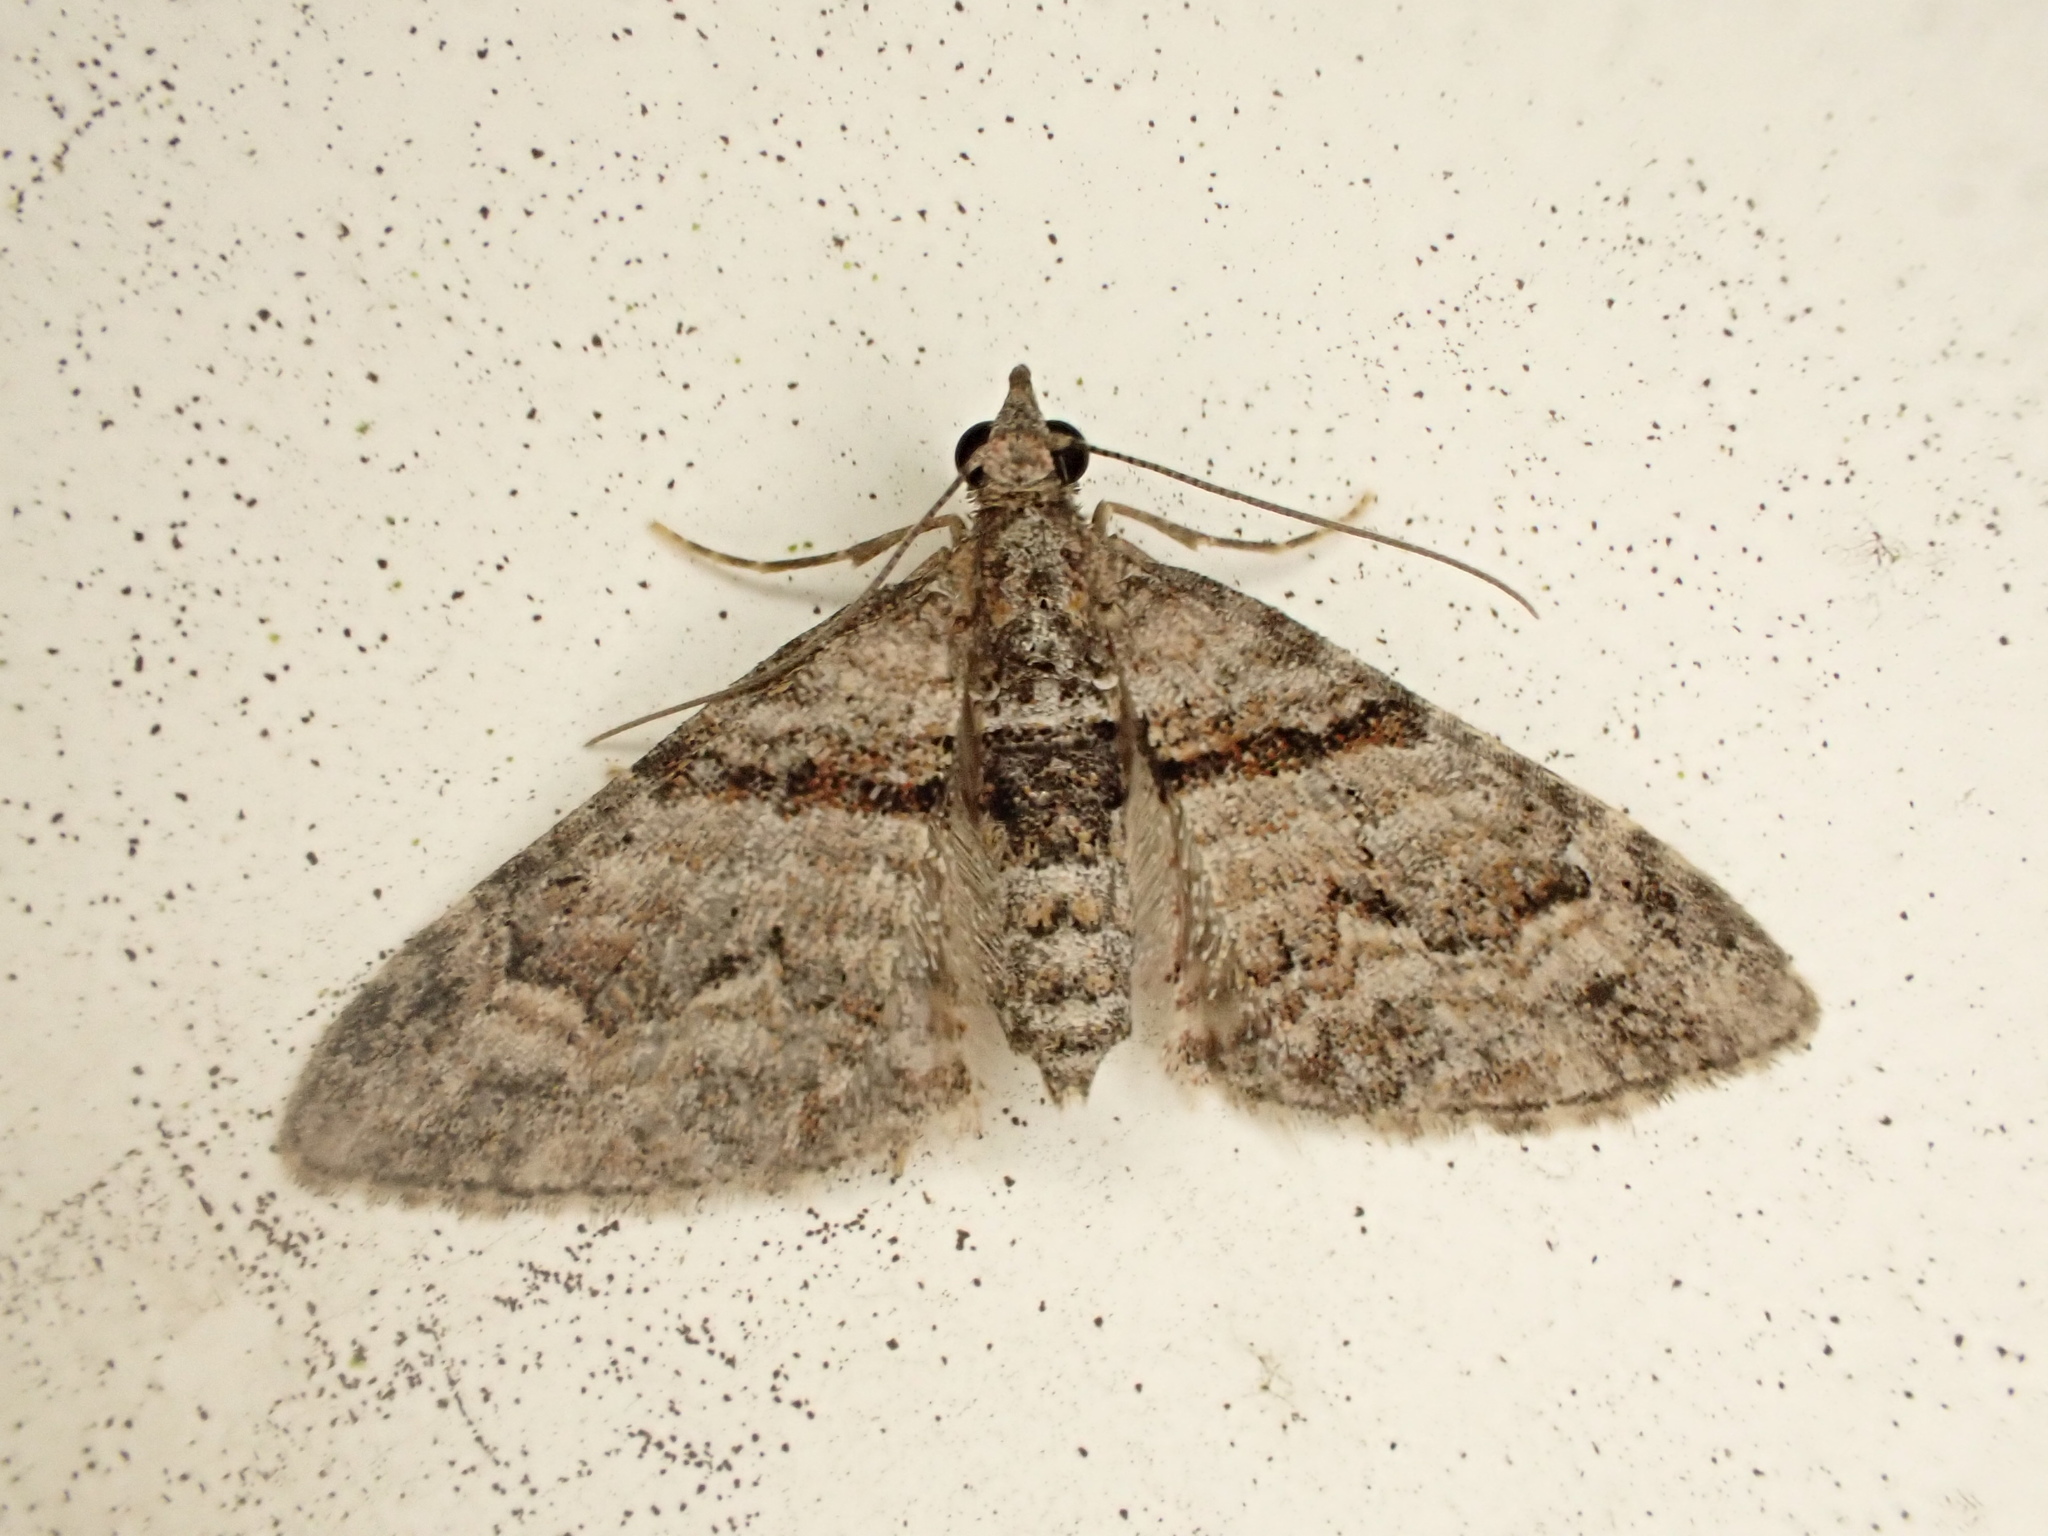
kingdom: Animalia
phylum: Arthropoda
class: Insecta
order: Lepidoptera
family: Geometridae
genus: Phrissogonus
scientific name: Phrissogonus laticostata
